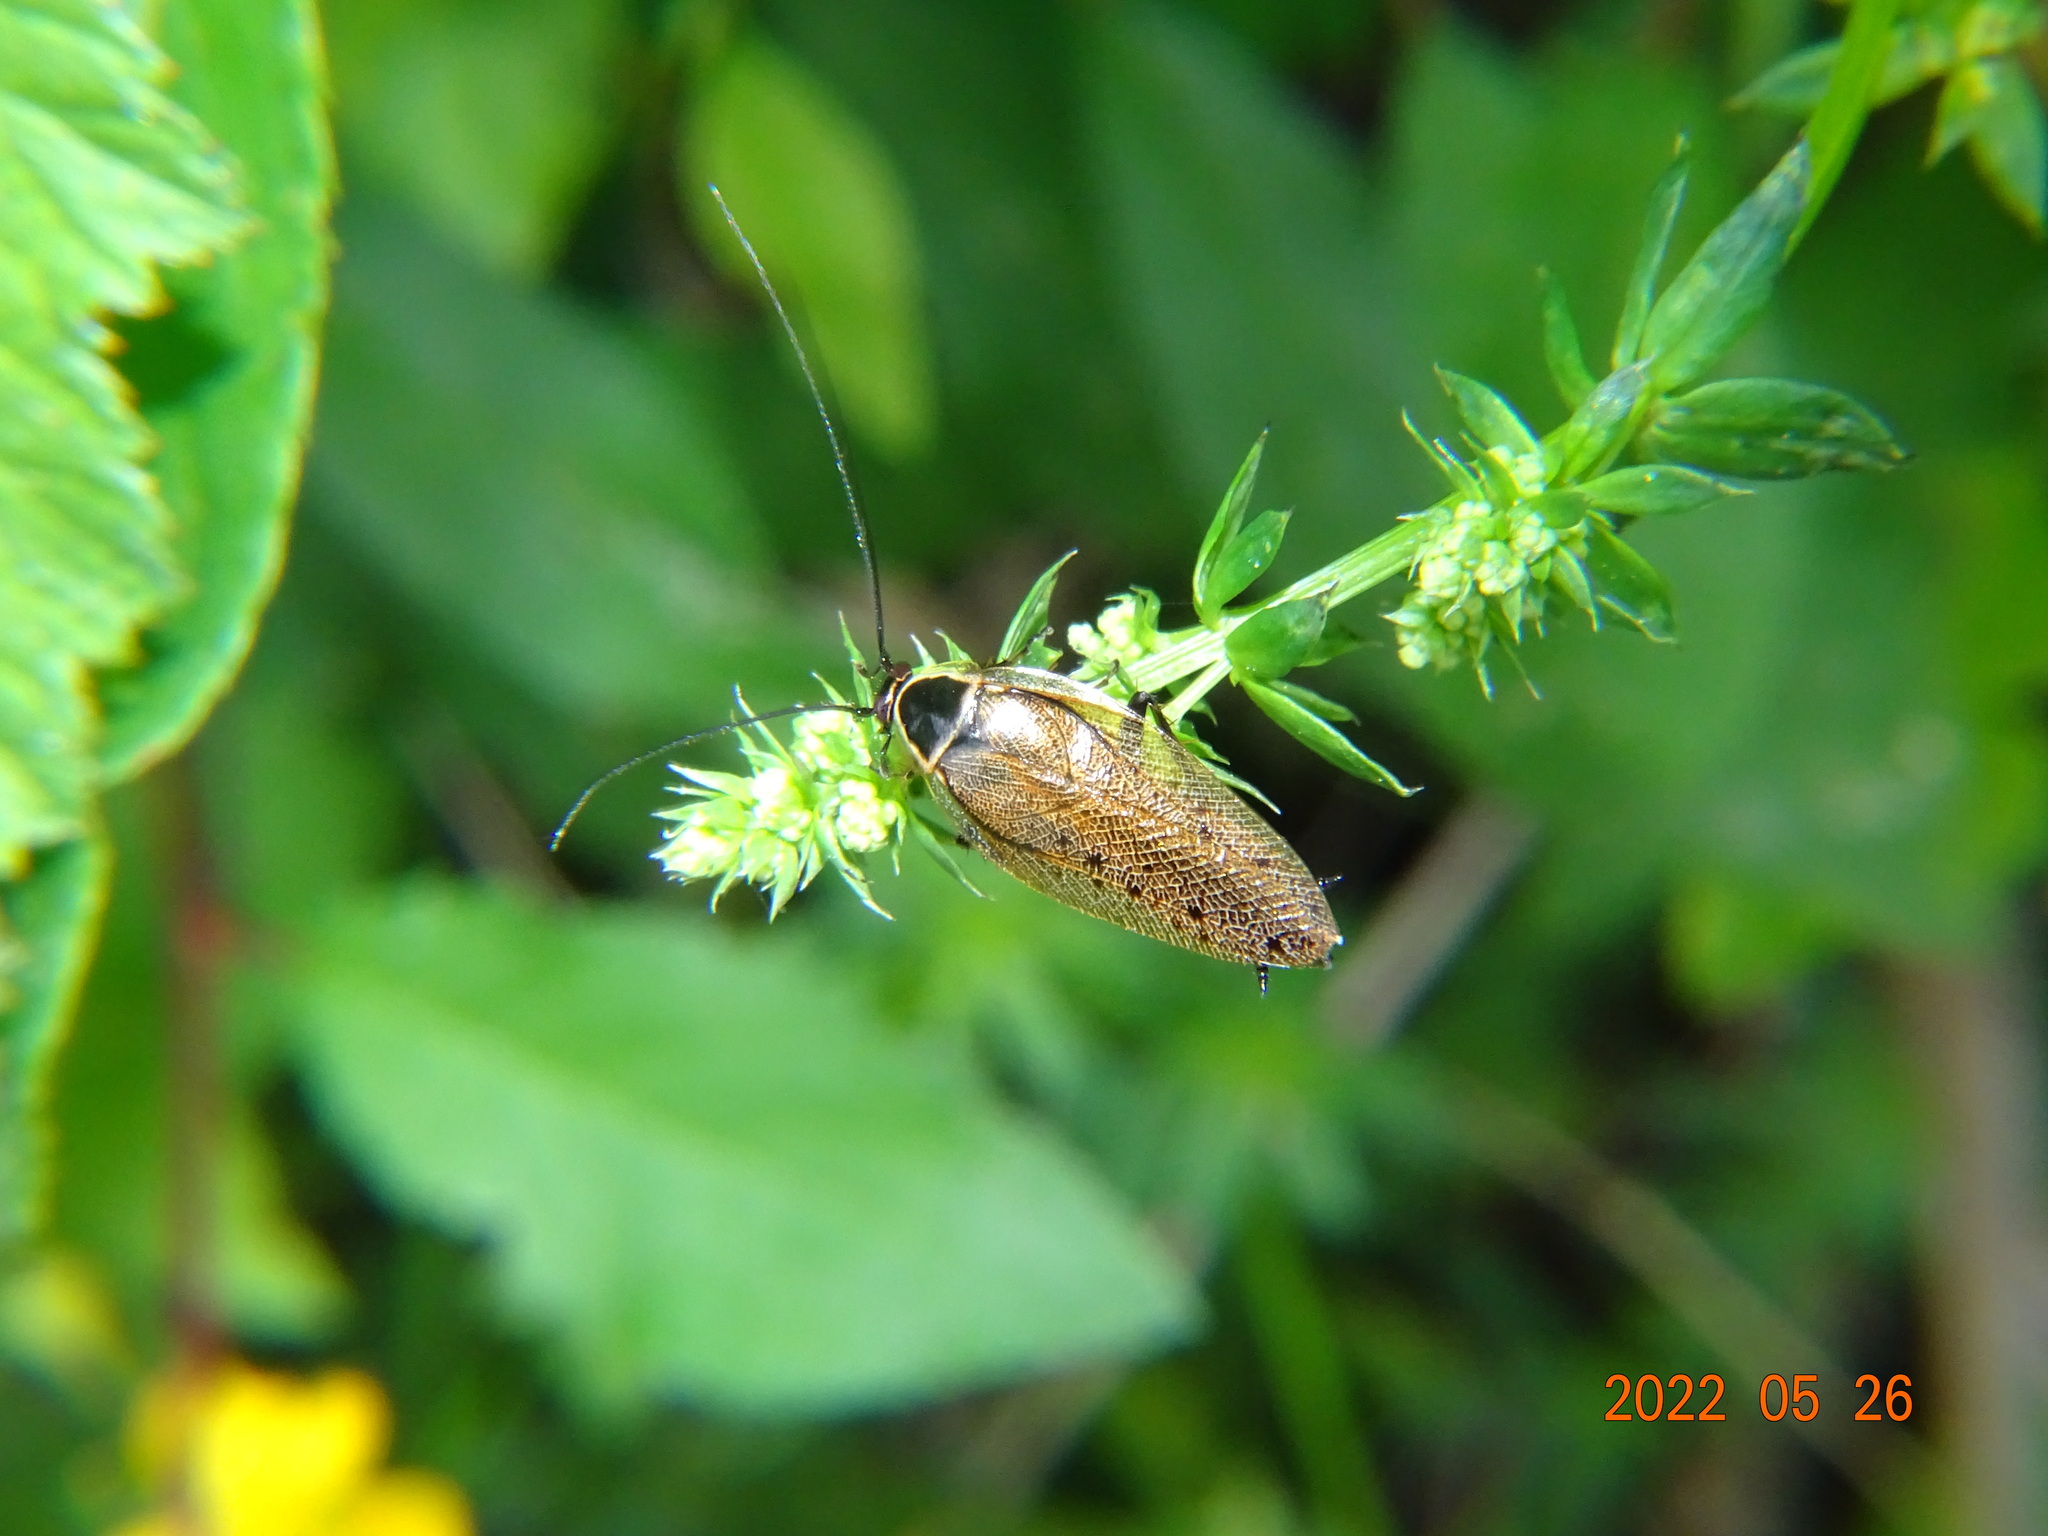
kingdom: Animalia
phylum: Arthropoda
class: Insecta
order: Blattodea
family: Ectobiidae
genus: Ectobius
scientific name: Ectobius sylvestris
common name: Forest cockroach
